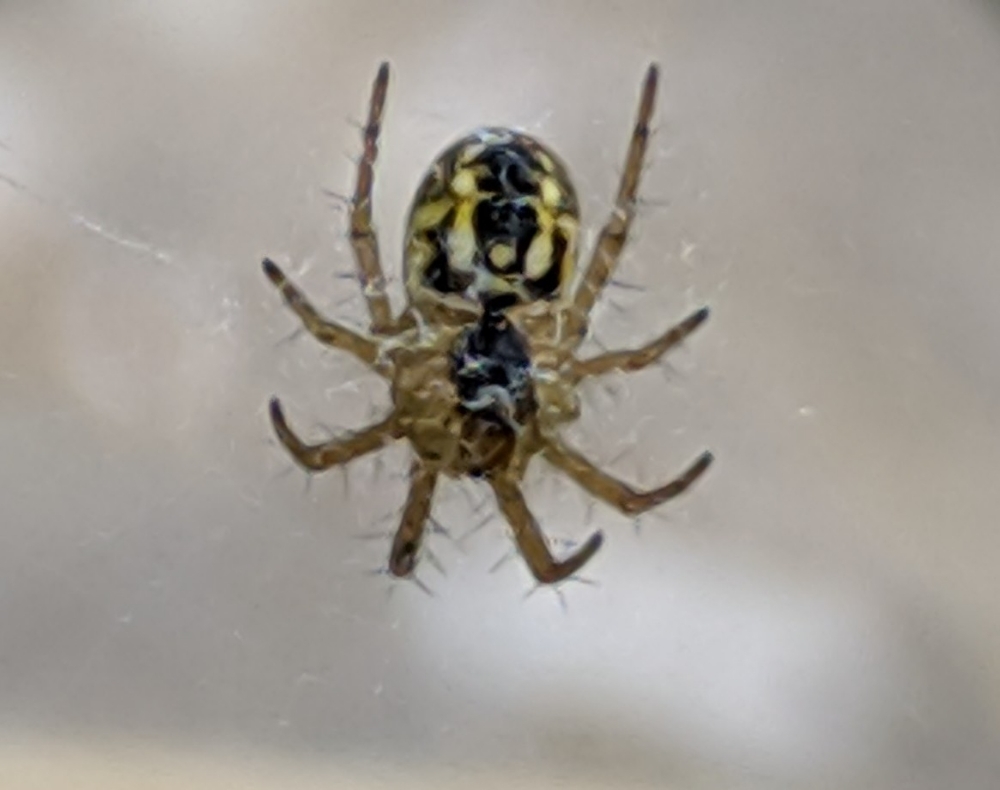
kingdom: Animalia
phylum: Arthropoda
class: Arachnida
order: Araneae
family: Araneidae
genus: Mangora
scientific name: Mangora acalypha
